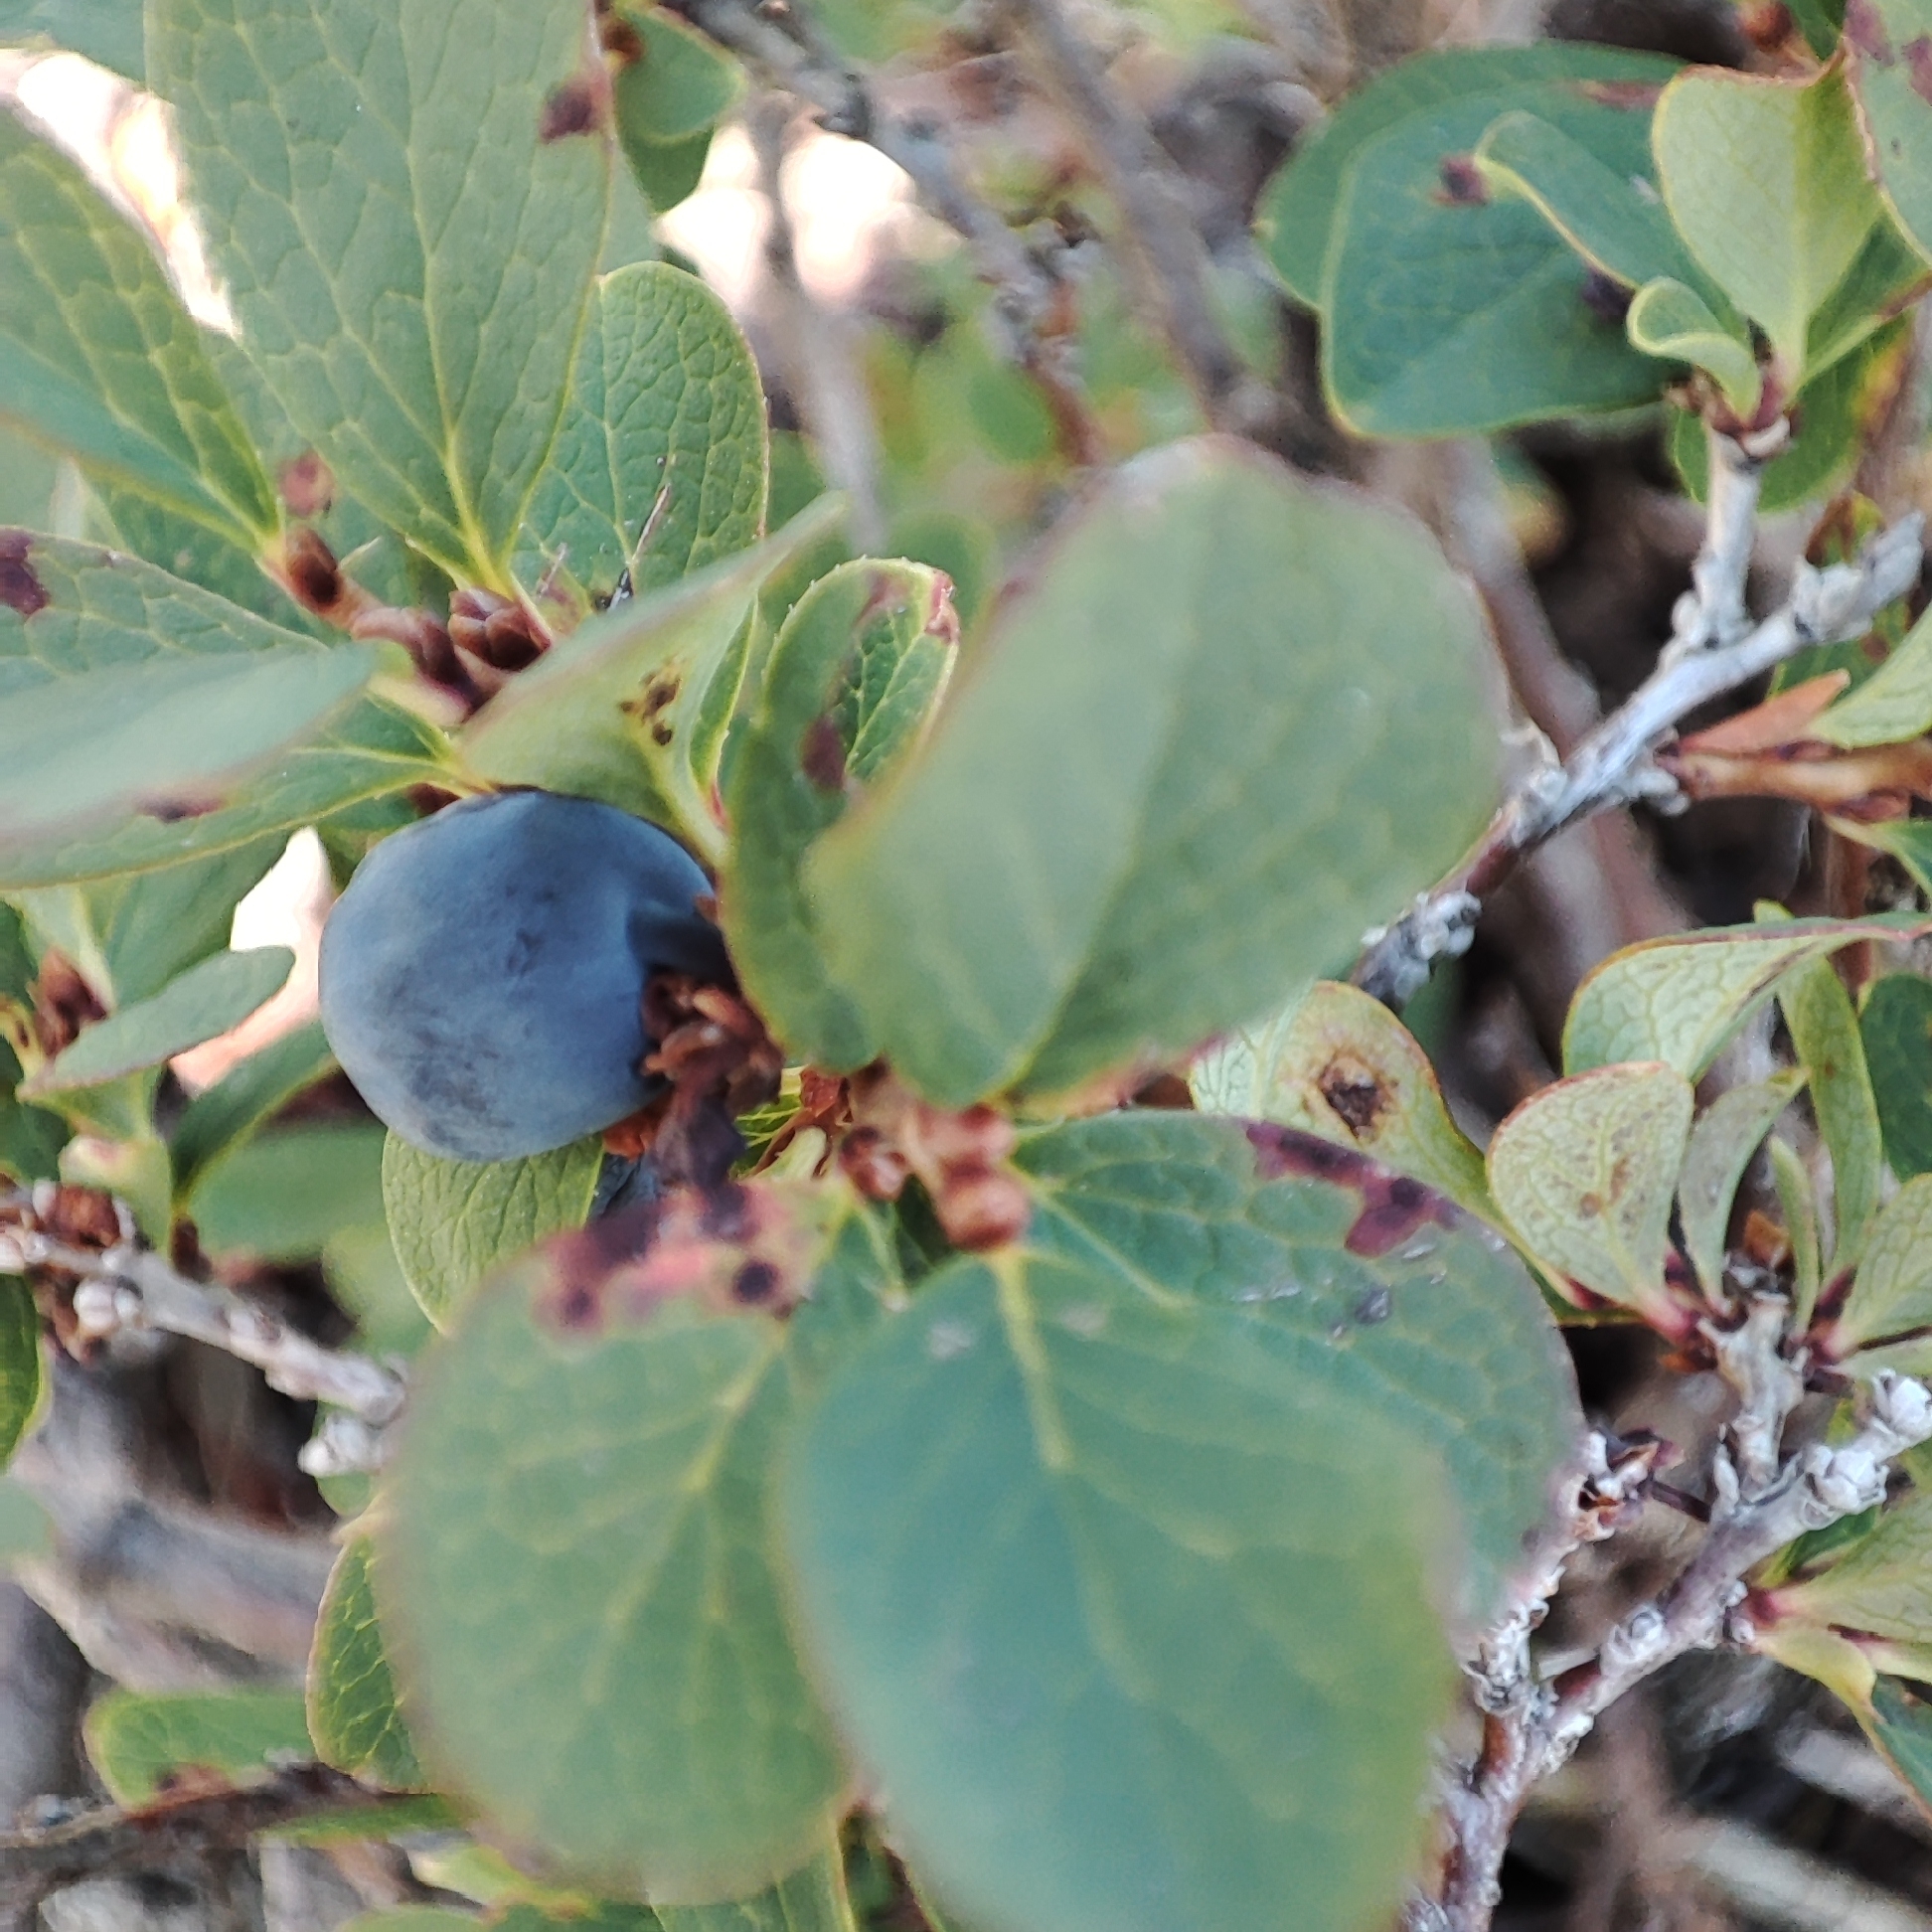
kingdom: Plantae
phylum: Tracheophyta
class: Magnoliopsida
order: Ericales
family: Ericaceae
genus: Vaccinium
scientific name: Vaccinium uliginosum
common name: Bog bilberry
